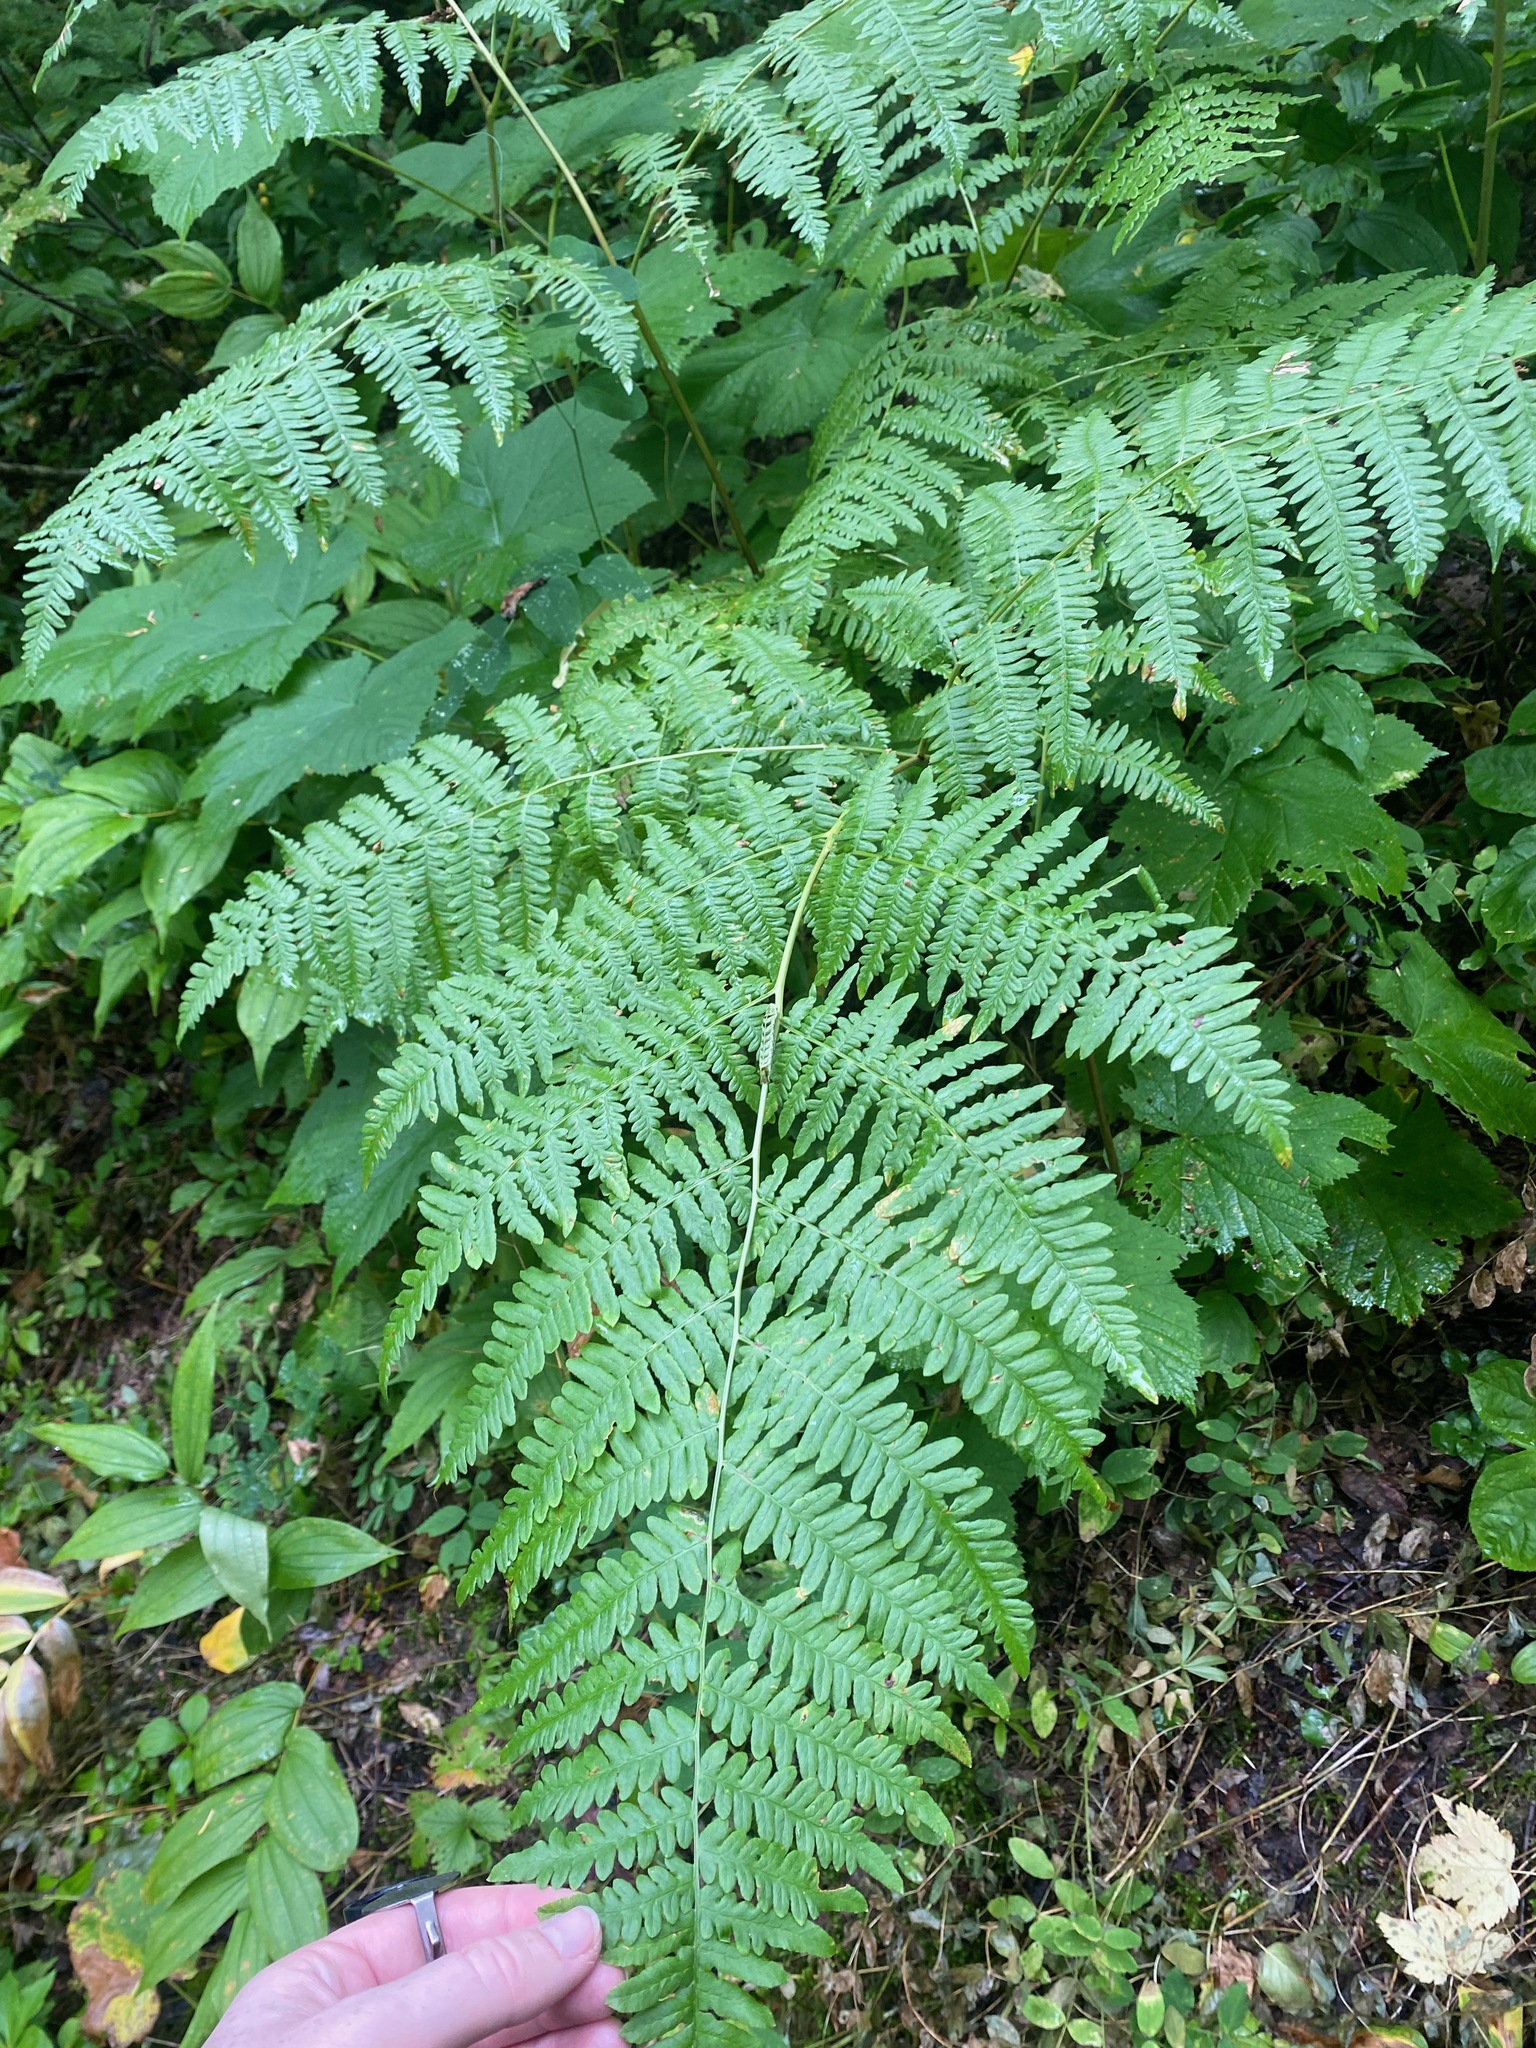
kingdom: Plantae
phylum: Tracheophyta
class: Polypodiopsida
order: Polypodiales
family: Dennstaedtiaceae
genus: Pteridium
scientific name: Pteridium aquilinum
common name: Bracken
